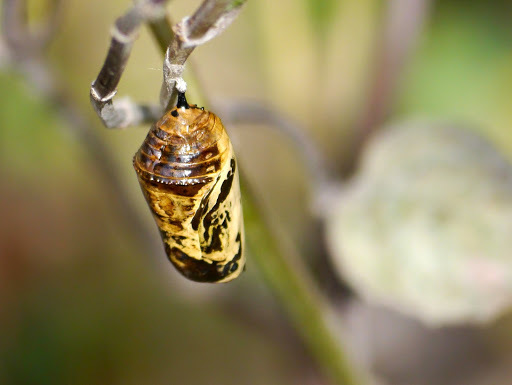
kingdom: Animalia
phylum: Arthropoda
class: Insecta
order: Lepidoptera
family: Nymphalidae
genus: Danaus
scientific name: Danaus plexippus
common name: Monarch
